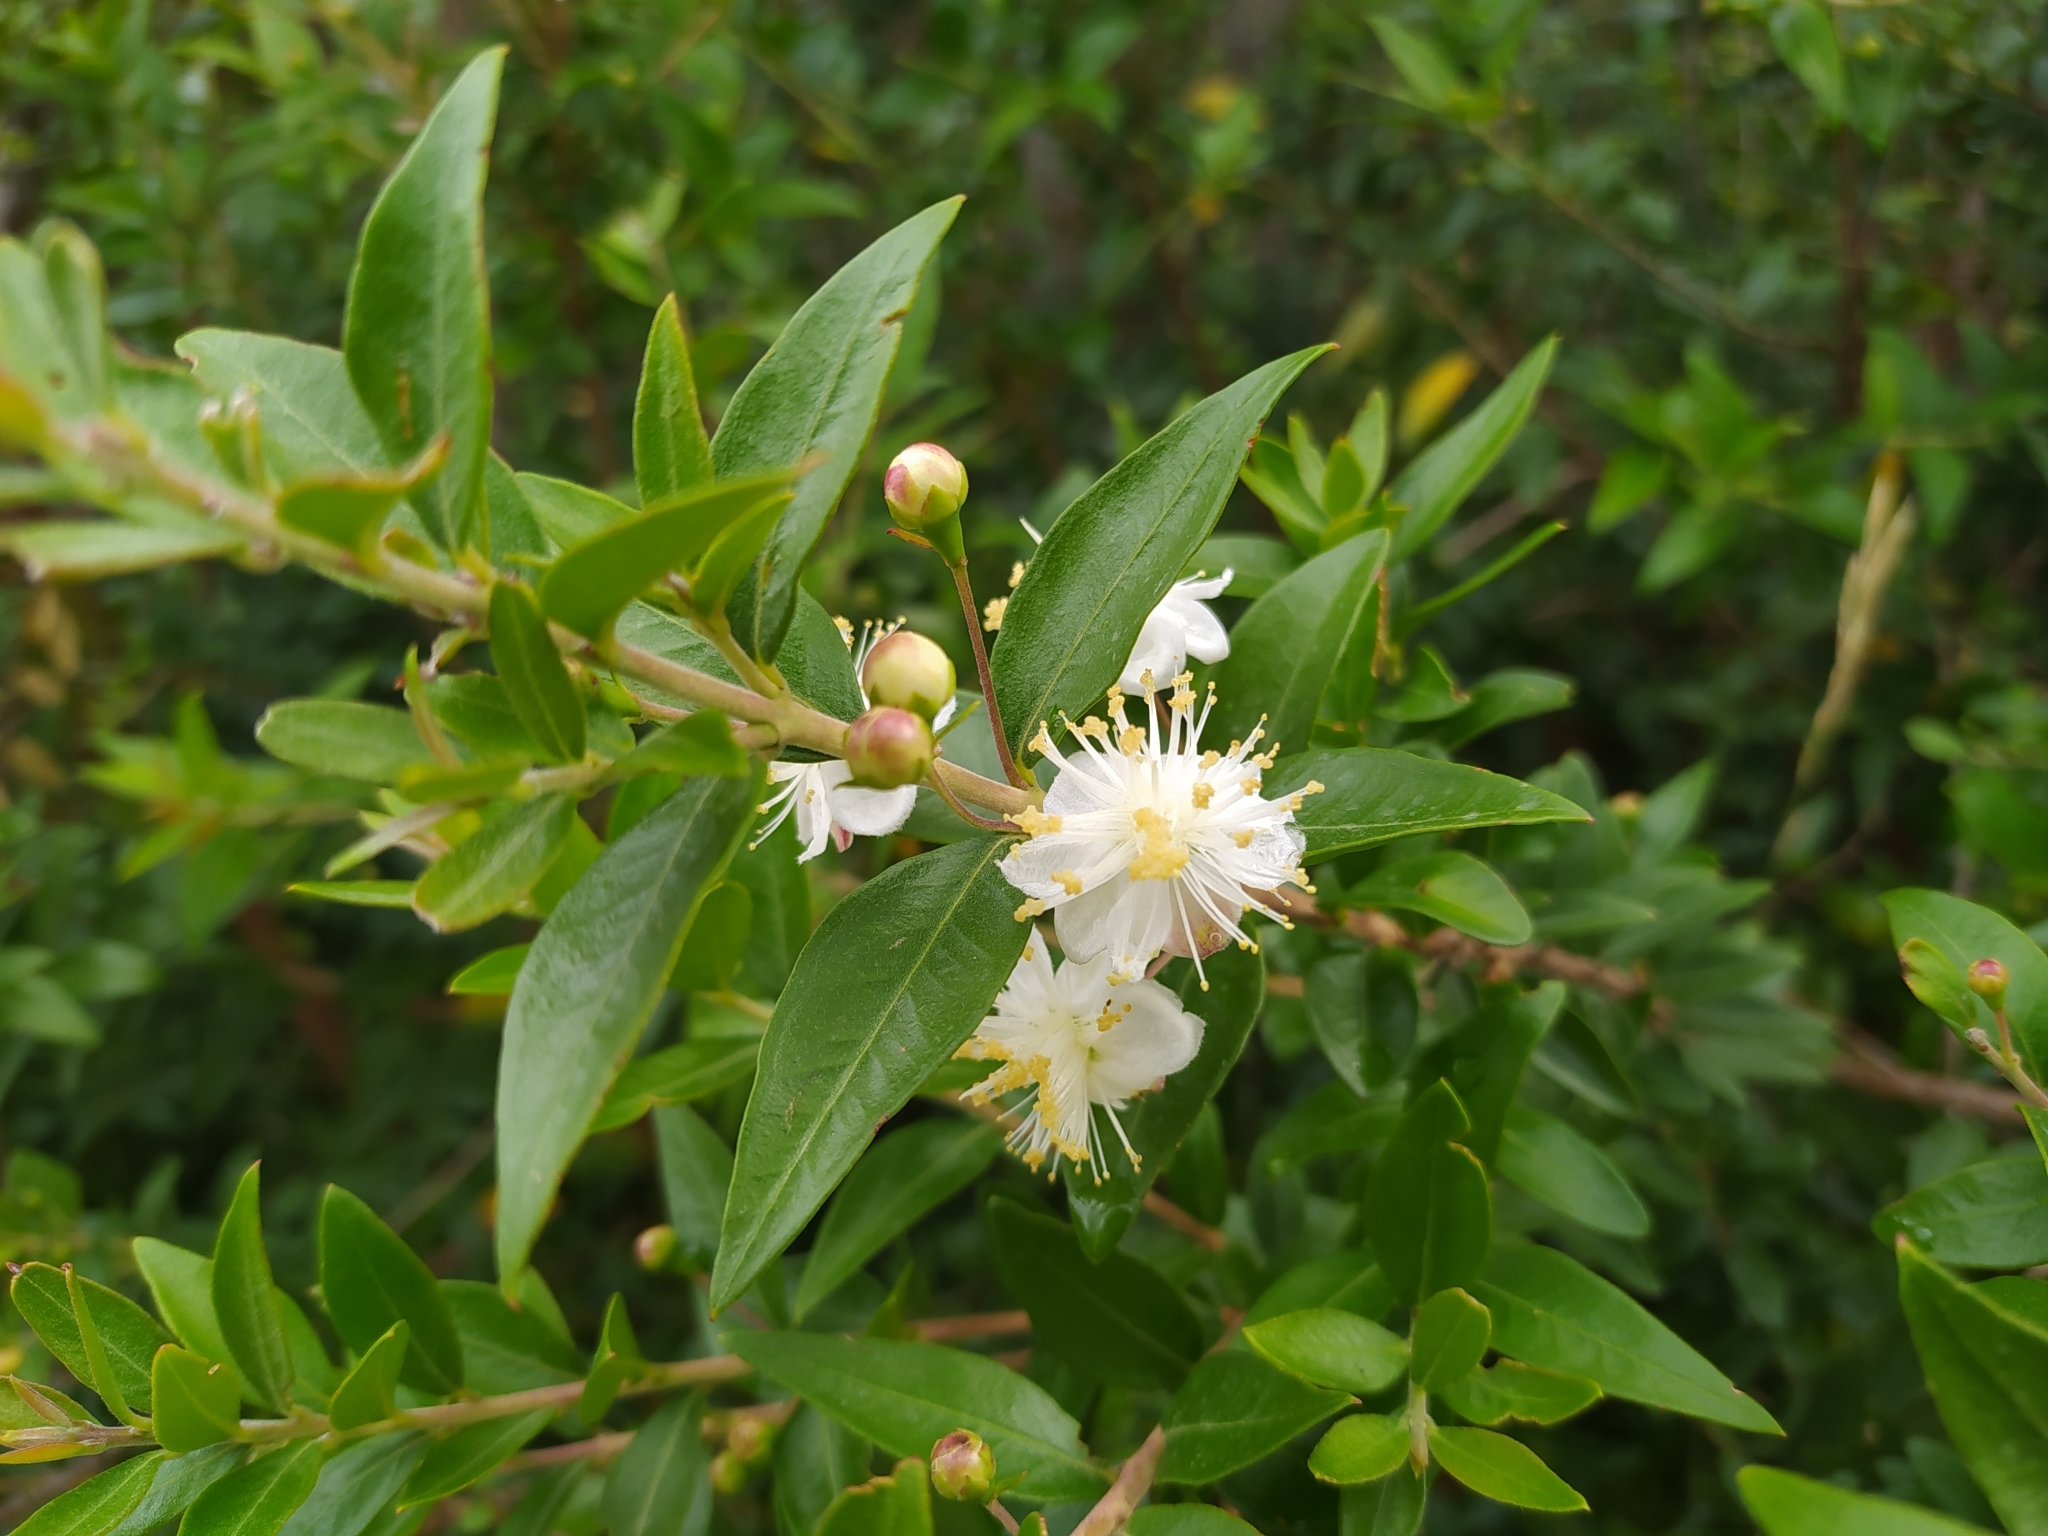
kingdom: Plantae
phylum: Tracheophyta
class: Magnoliopsida
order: Myrtales
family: Myrtaceae
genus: Myrtus
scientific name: Myrtus communis
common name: Myrtle
